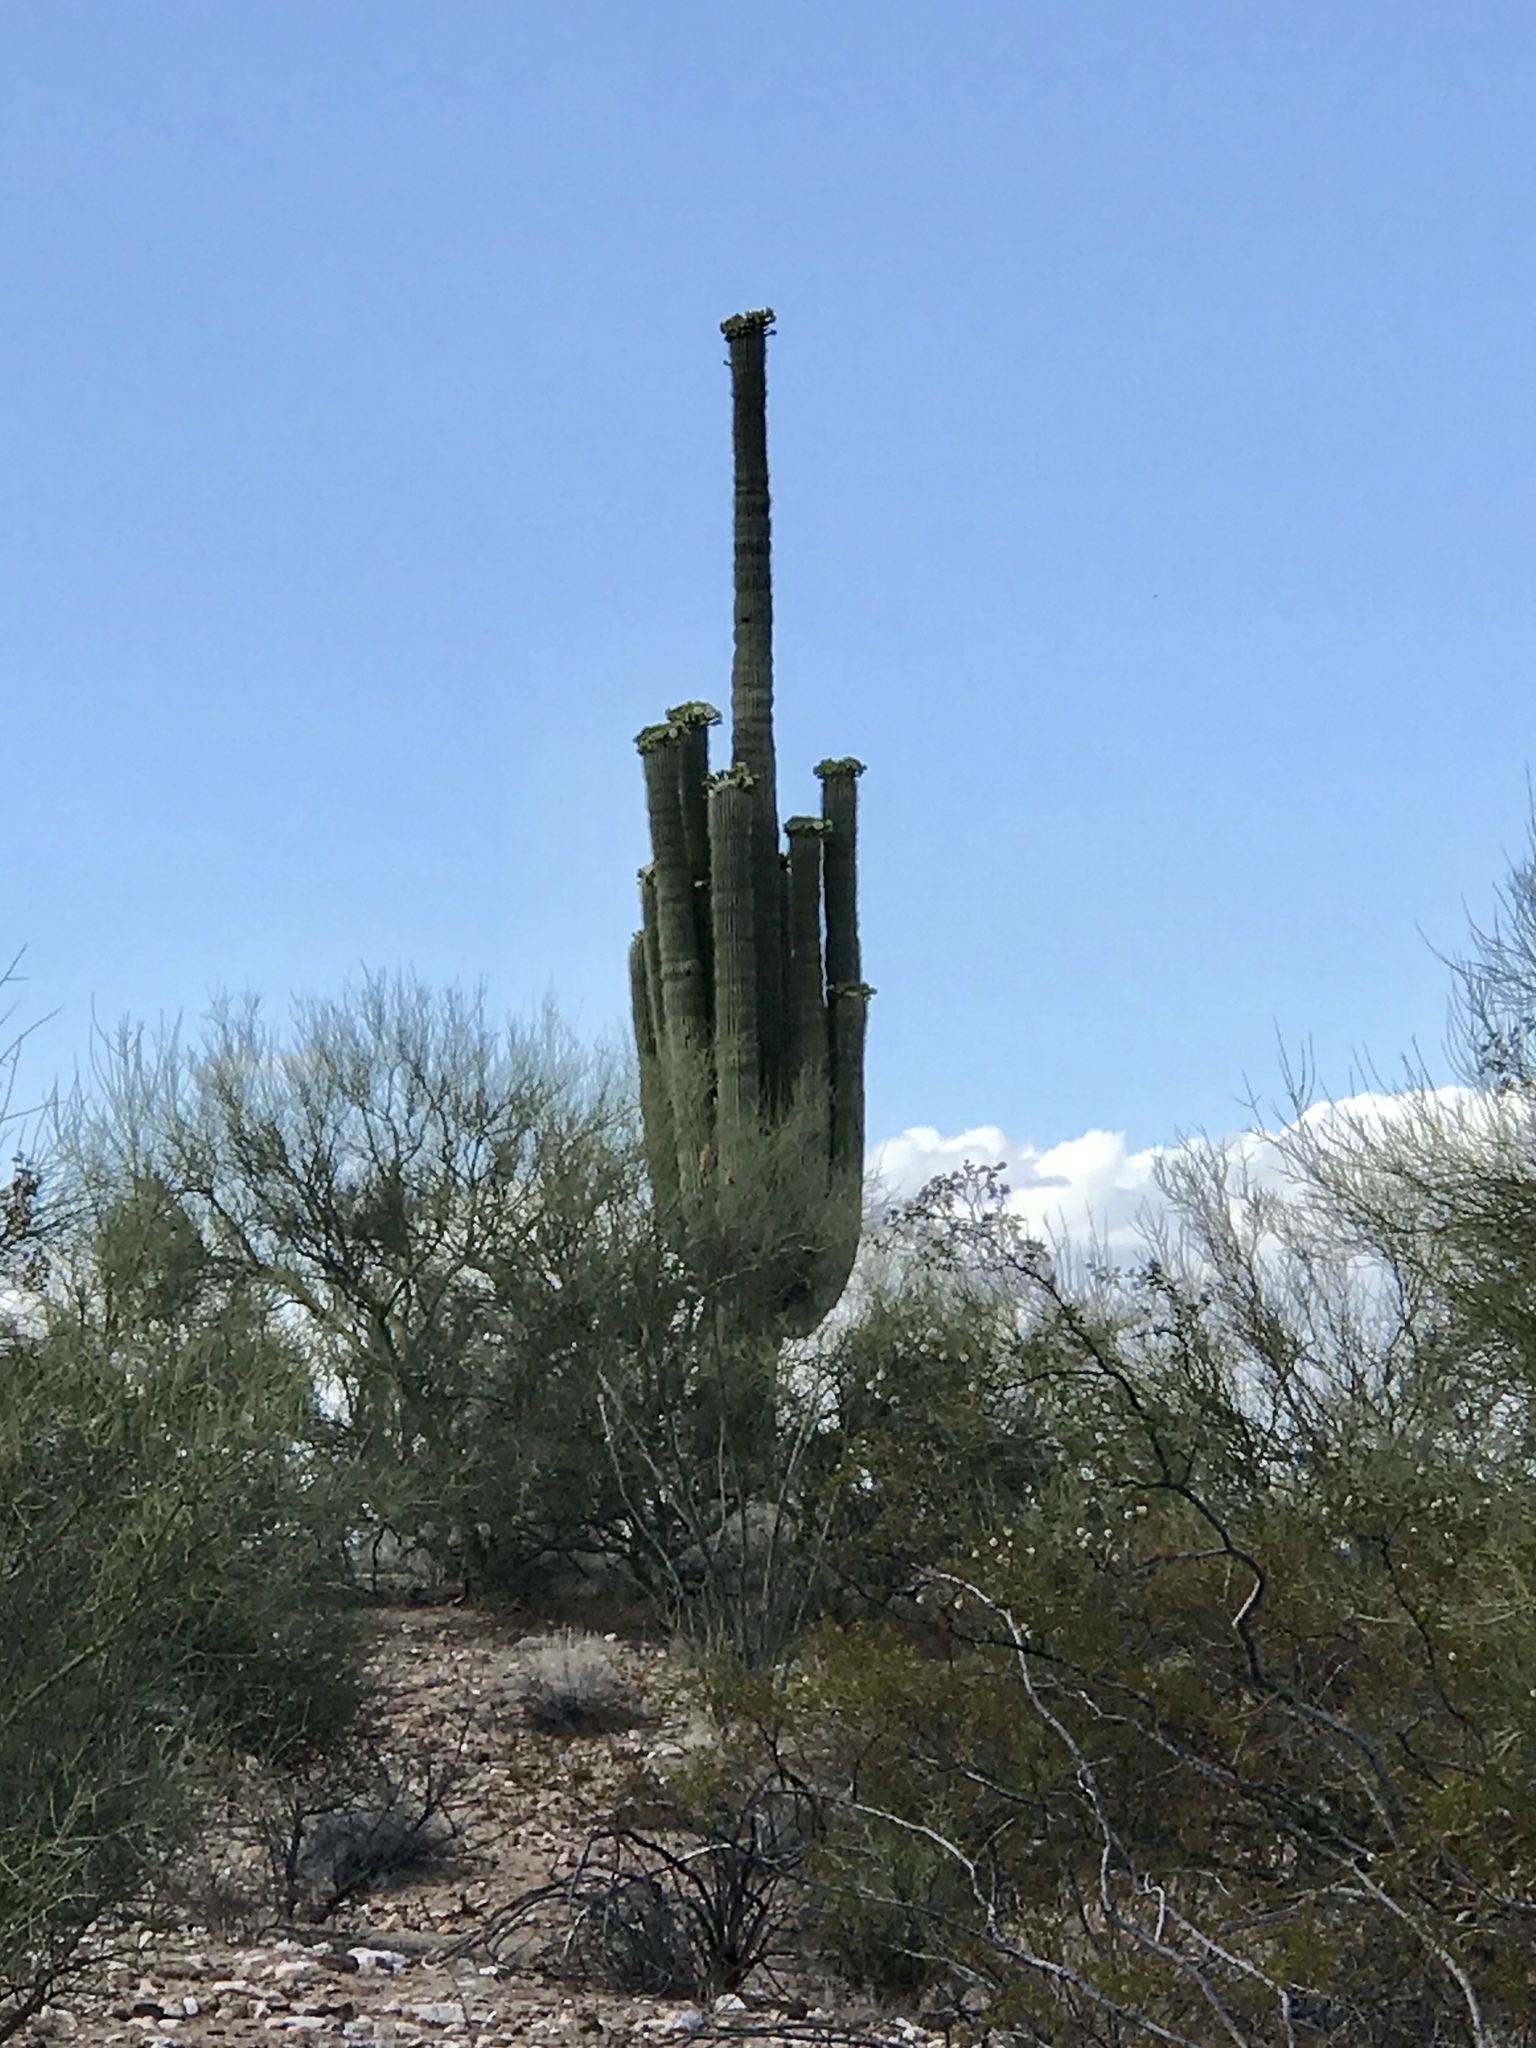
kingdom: Plantae
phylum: Tracheophyta
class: Magnoliopsida
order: Caryophyllales
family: Cactaceae
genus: Carnegiea
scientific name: Carnegiea gigantea
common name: Saguaro
